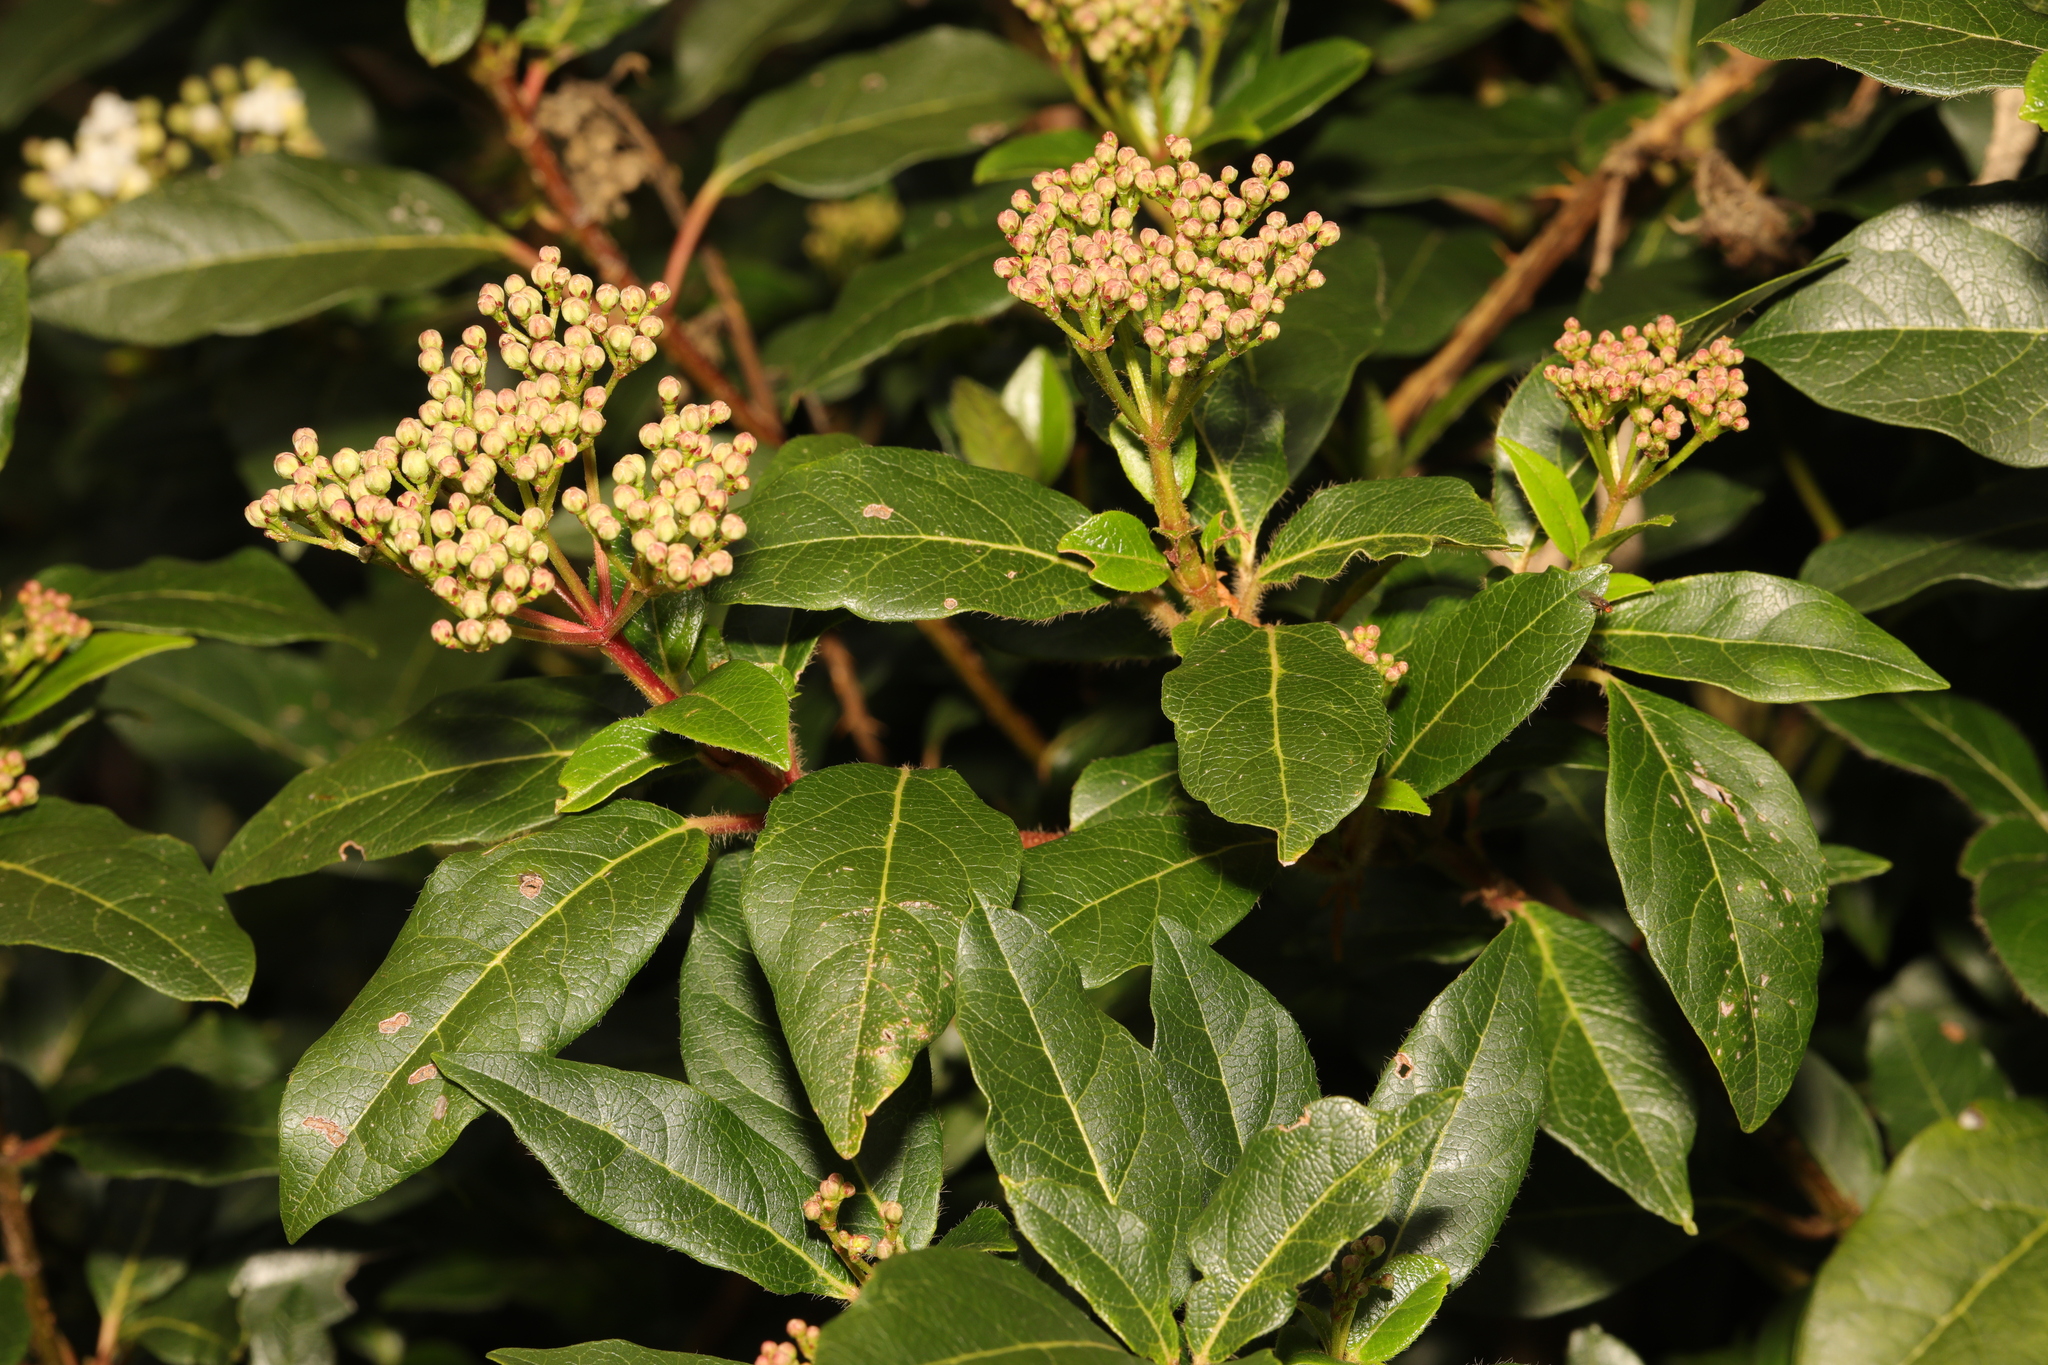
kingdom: Plantae
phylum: Tracheophyta
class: Magnoliopsida
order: Dipsacales
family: Viburnaceae
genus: Viburnum
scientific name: Viburnum tinus
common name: Laurustinus
